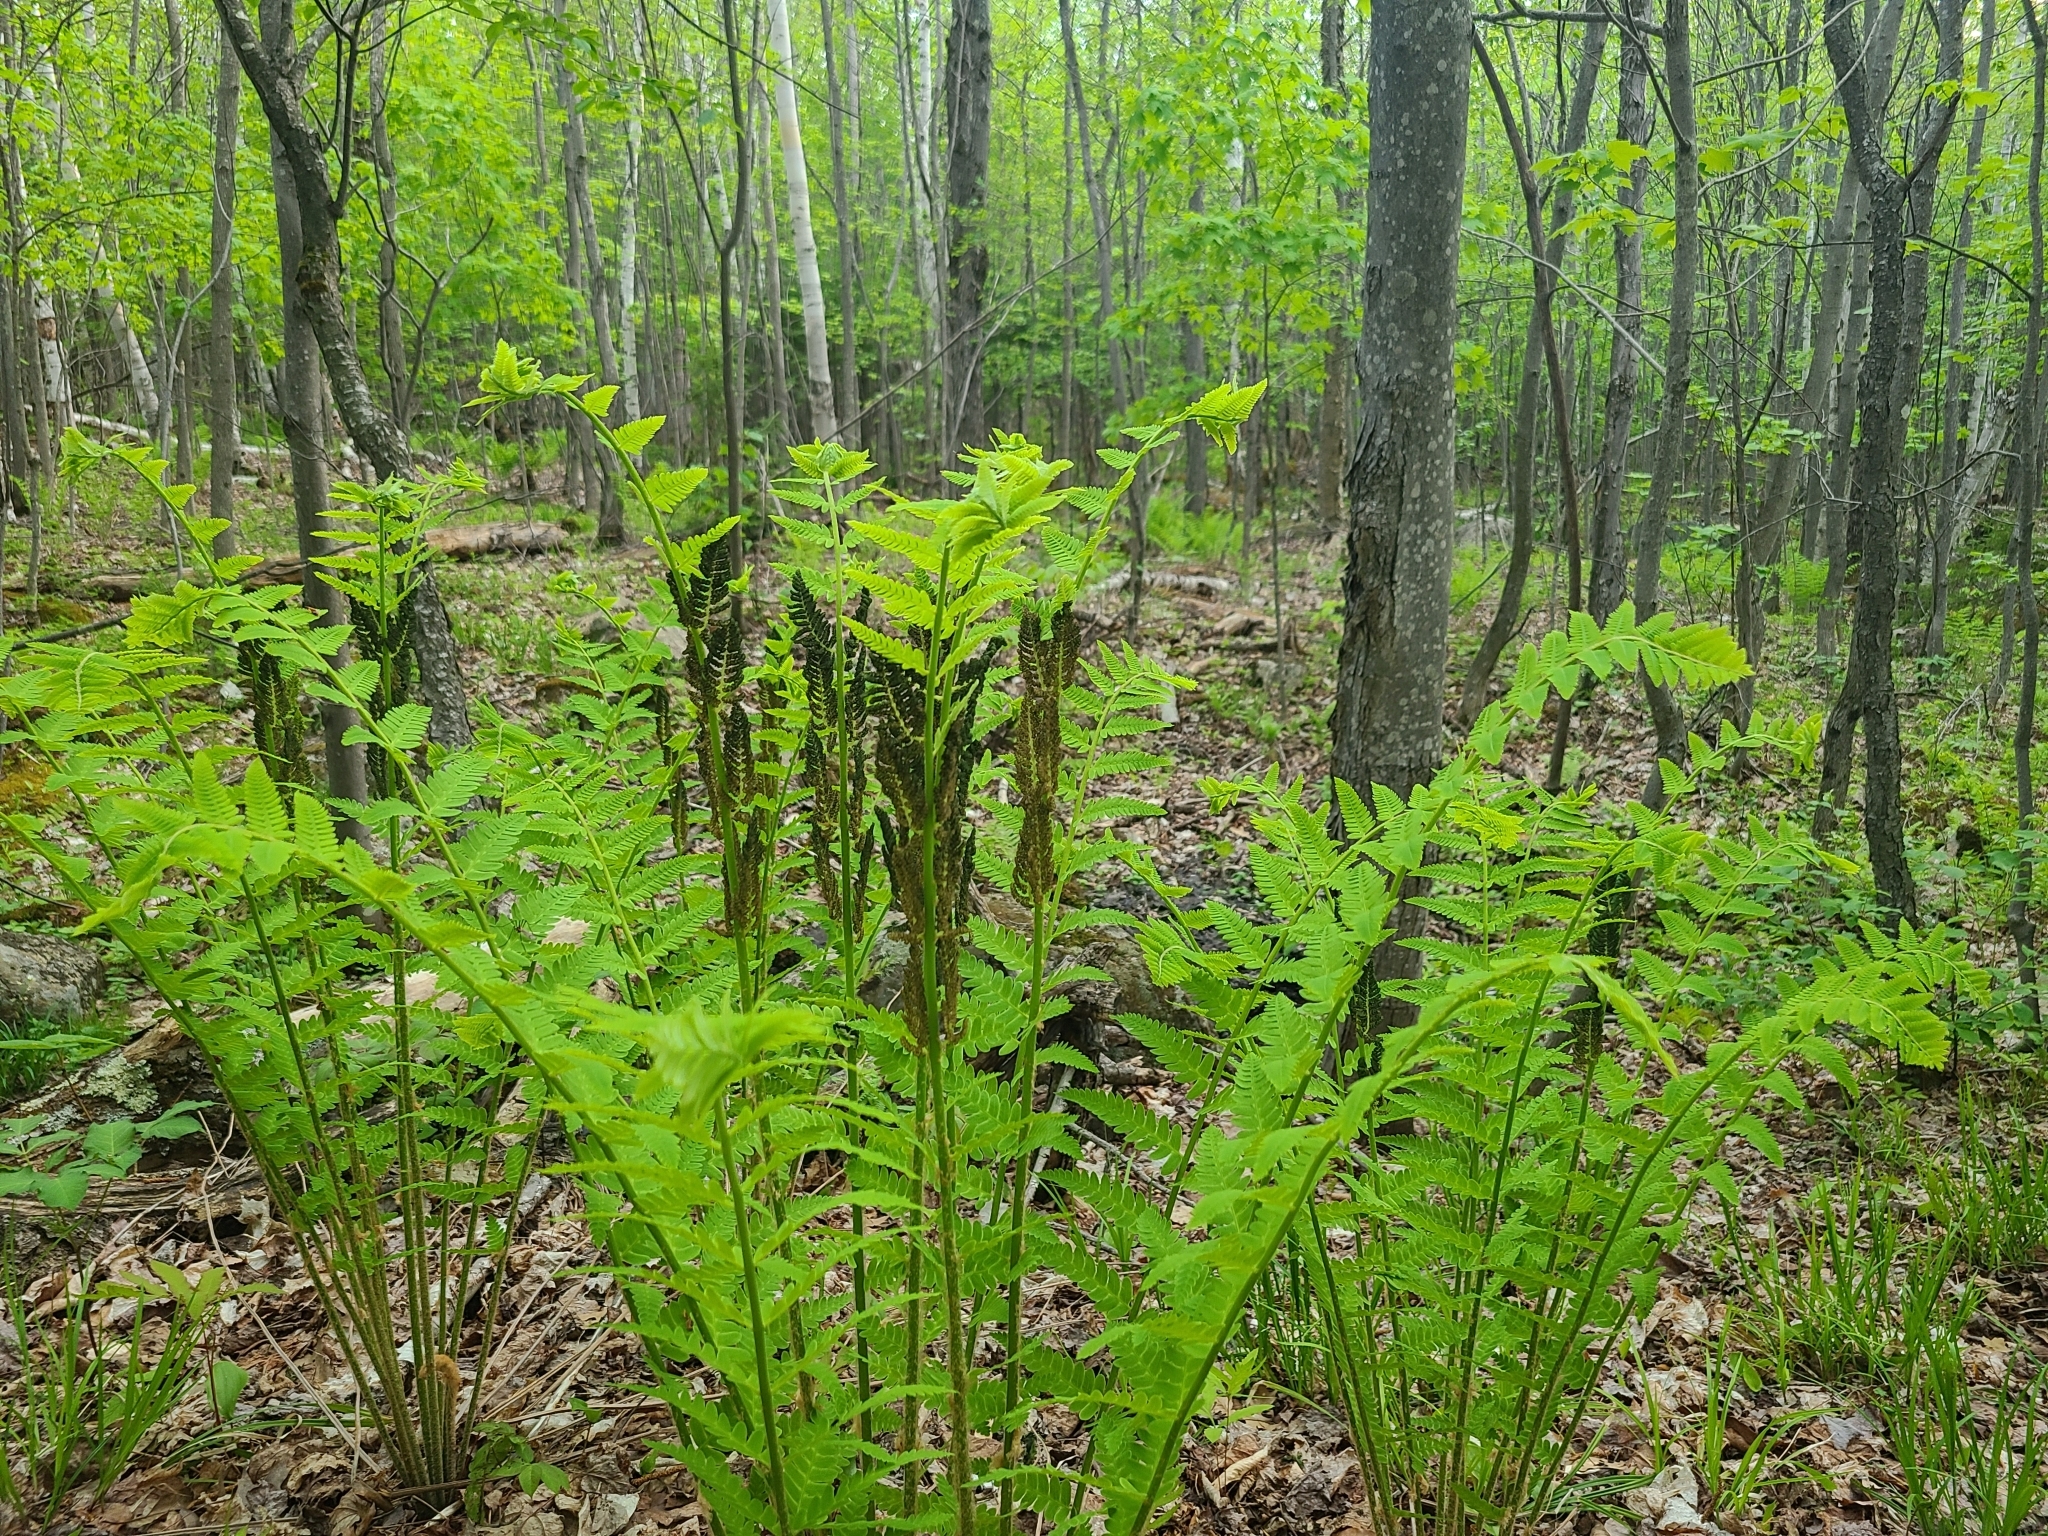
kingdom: Plantae
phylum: Tracheophyta
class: Polypodiopsida
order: Osmundales
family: Osmundaceae
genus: Claytosmunda
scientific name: Claytosmunda claytoniana
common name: Clayton's fern
